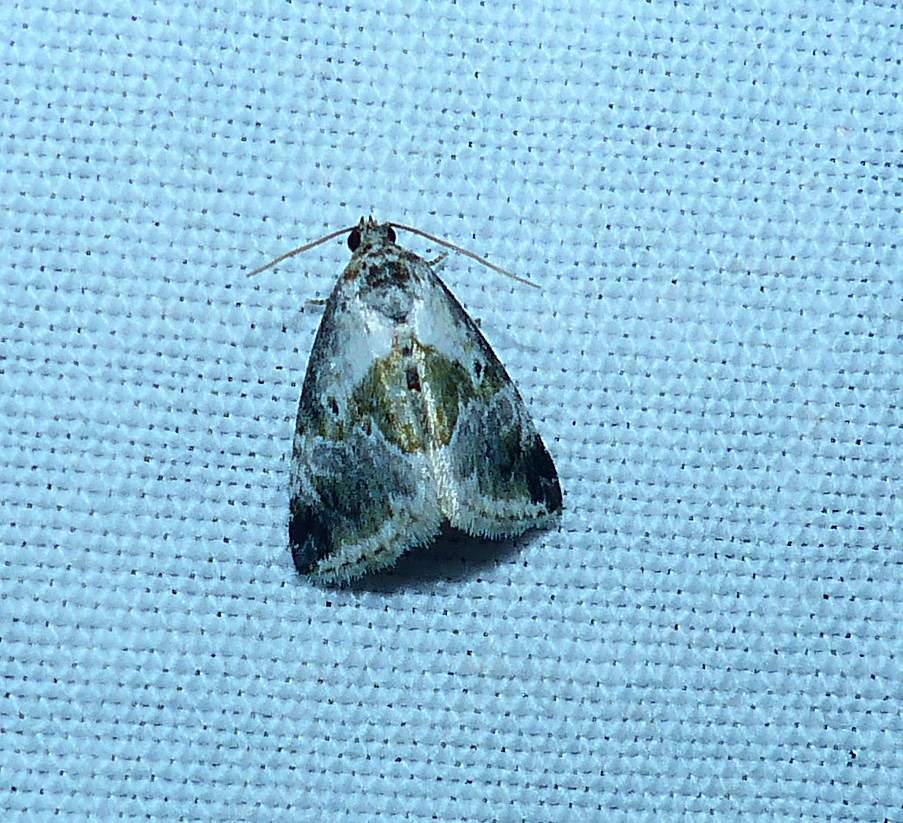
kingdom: Animalia
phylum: Arthropoda
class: Insecta
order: Lepidoptera
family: Noctuidae
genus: Maliattha
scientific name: Maliattha synochitis
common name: Black-dotted glyph
